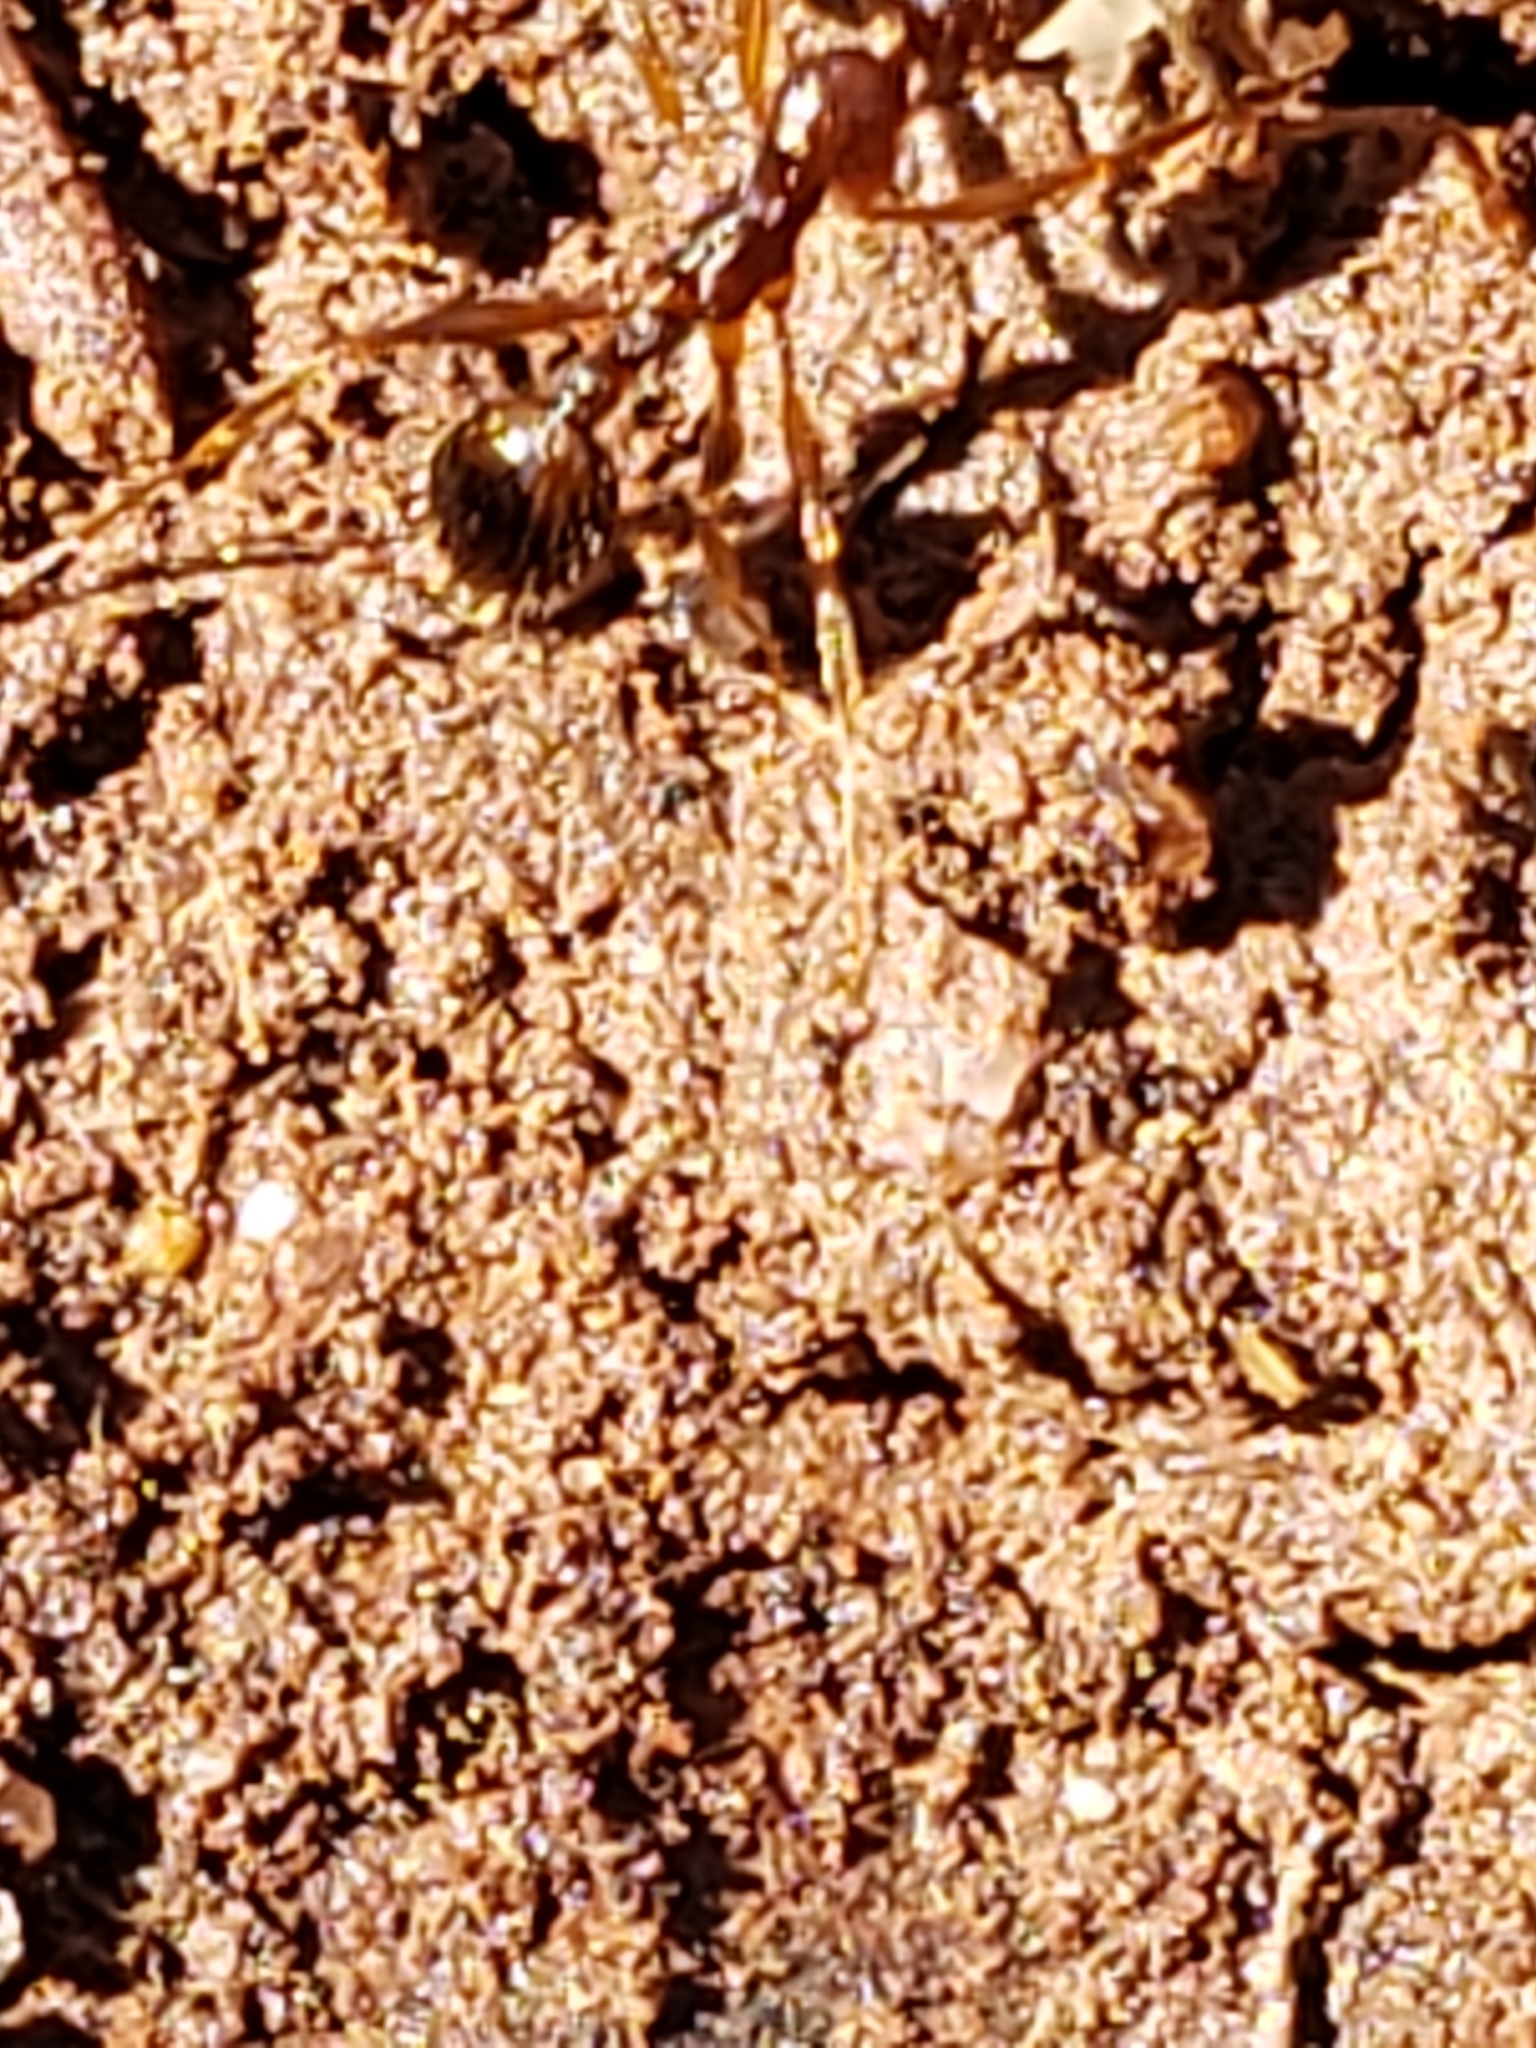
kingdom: Animalia
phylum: Arthropoda
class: Insecta
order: Hymenoptera
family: Formicidae
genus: Aphaenogaster
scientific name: Aphaenogaster rudis
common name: Winnow ant
